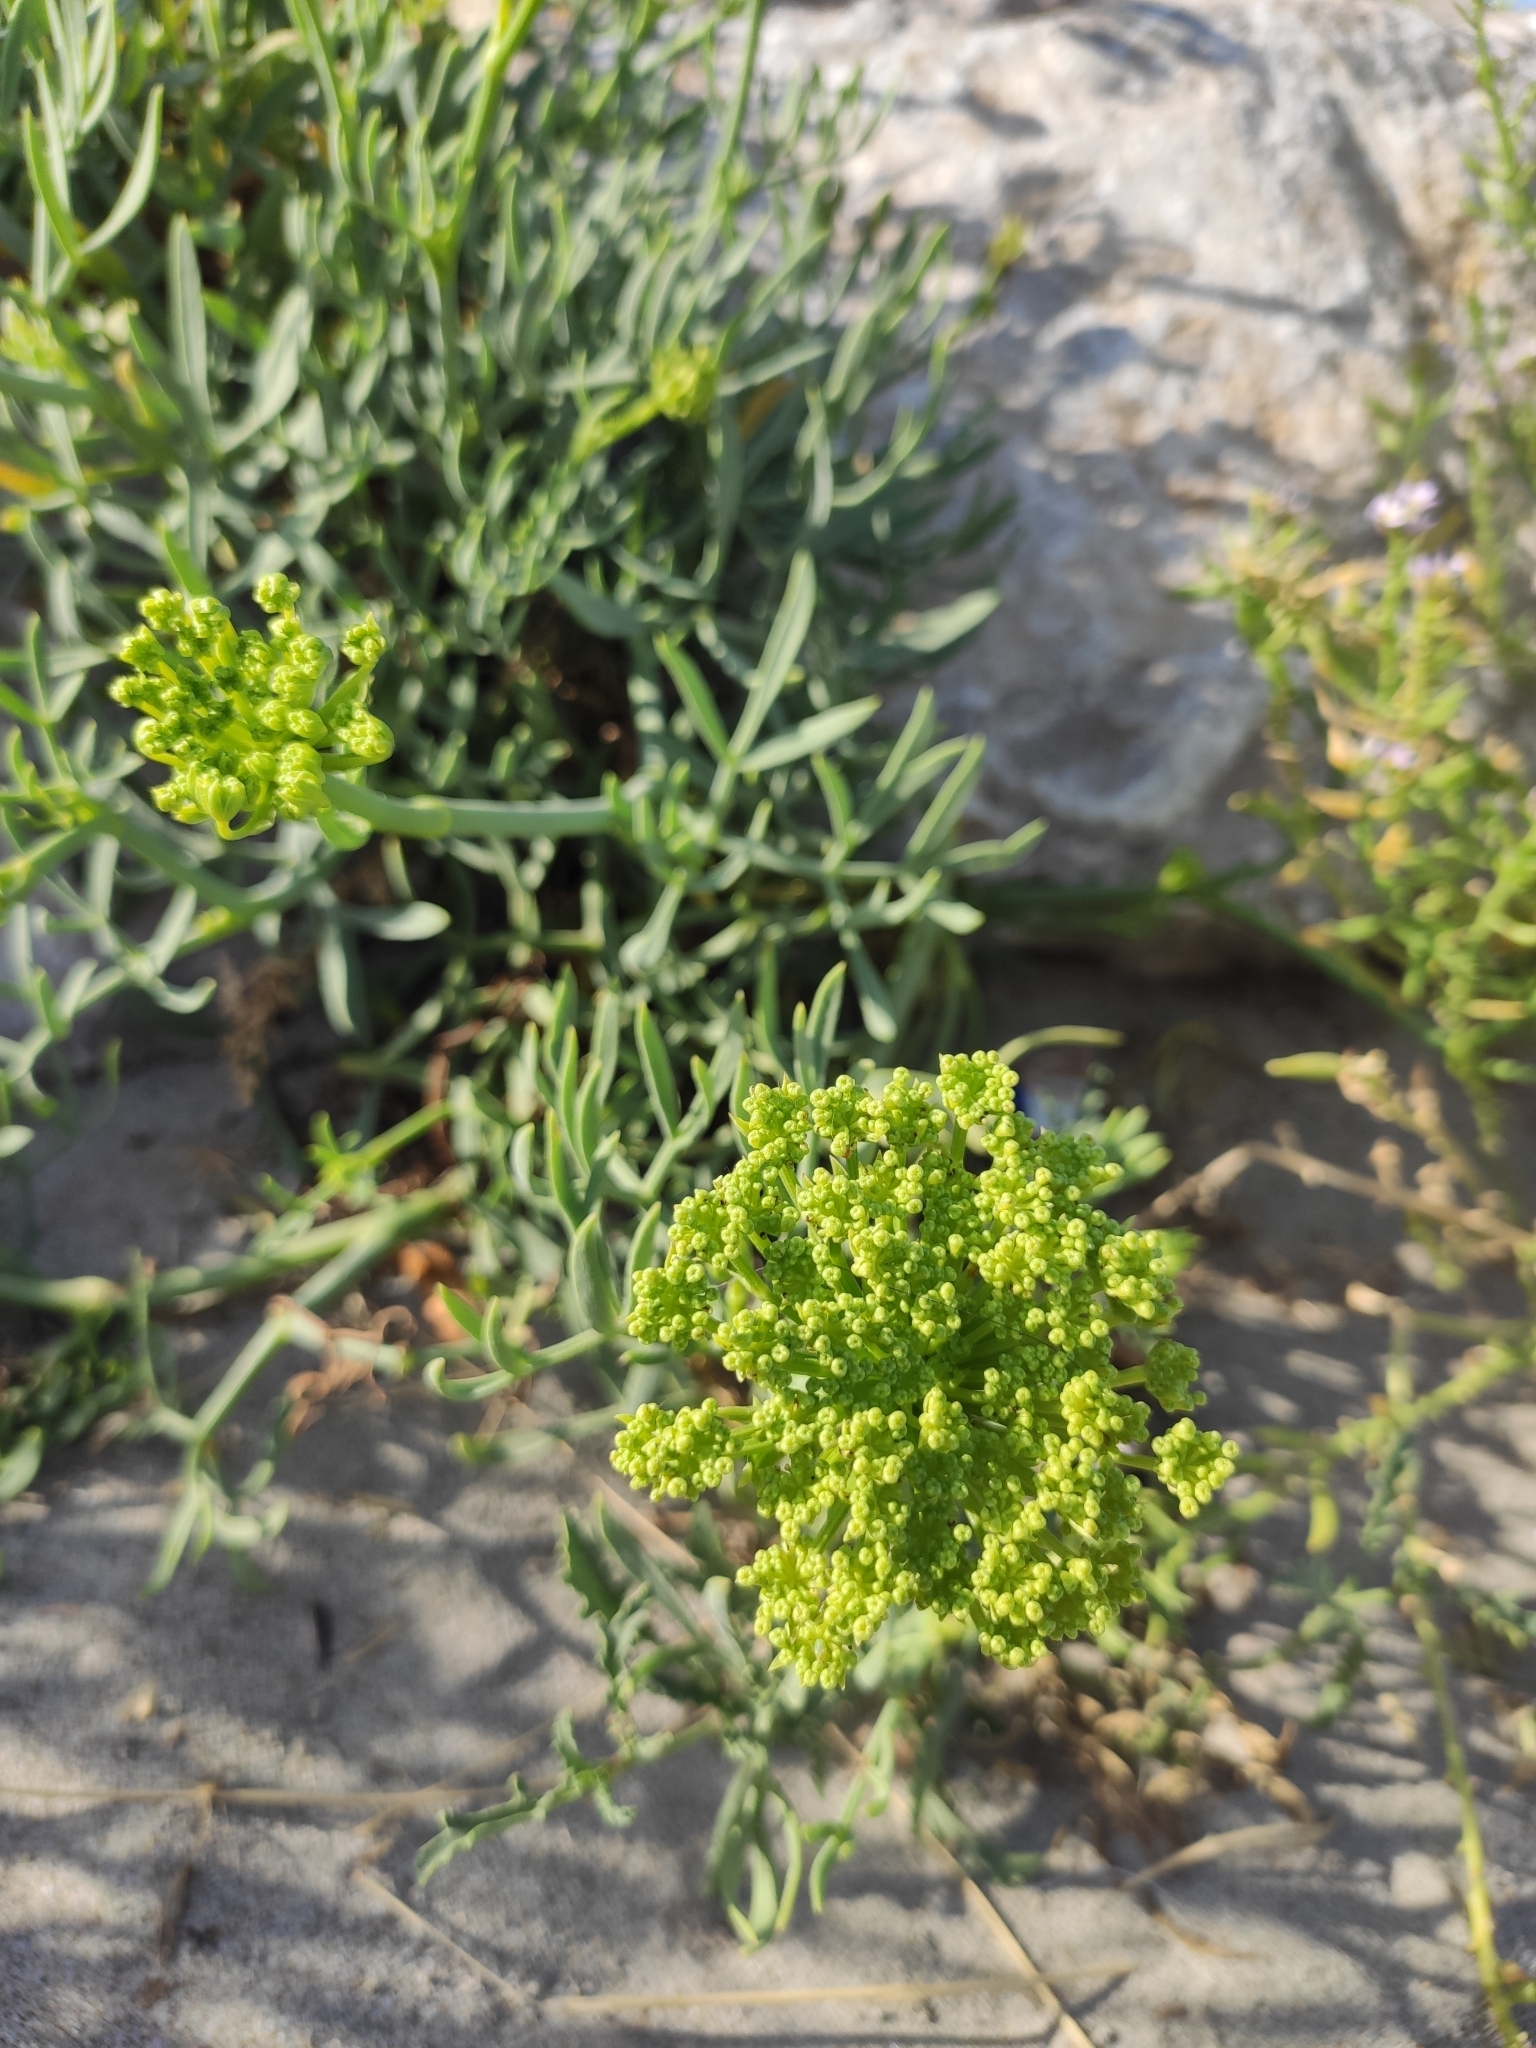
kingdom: Plantae
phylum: Tracheophyta
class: Magnoliopsida
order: Apiales
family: Apiaceae
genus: Crithmum
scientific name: Crithmum maritimum
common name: Rock samphire
